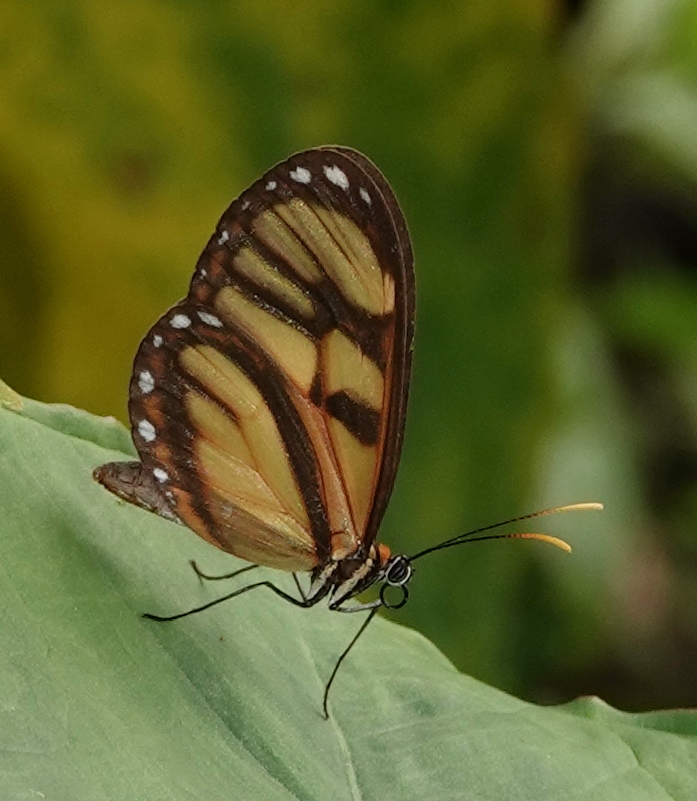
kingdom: Animalia
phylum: Arthropoda
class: Insecta
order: Lepidoptera
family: Nymphalidae
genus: Ithomia
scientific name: Ithomia iphianassa
